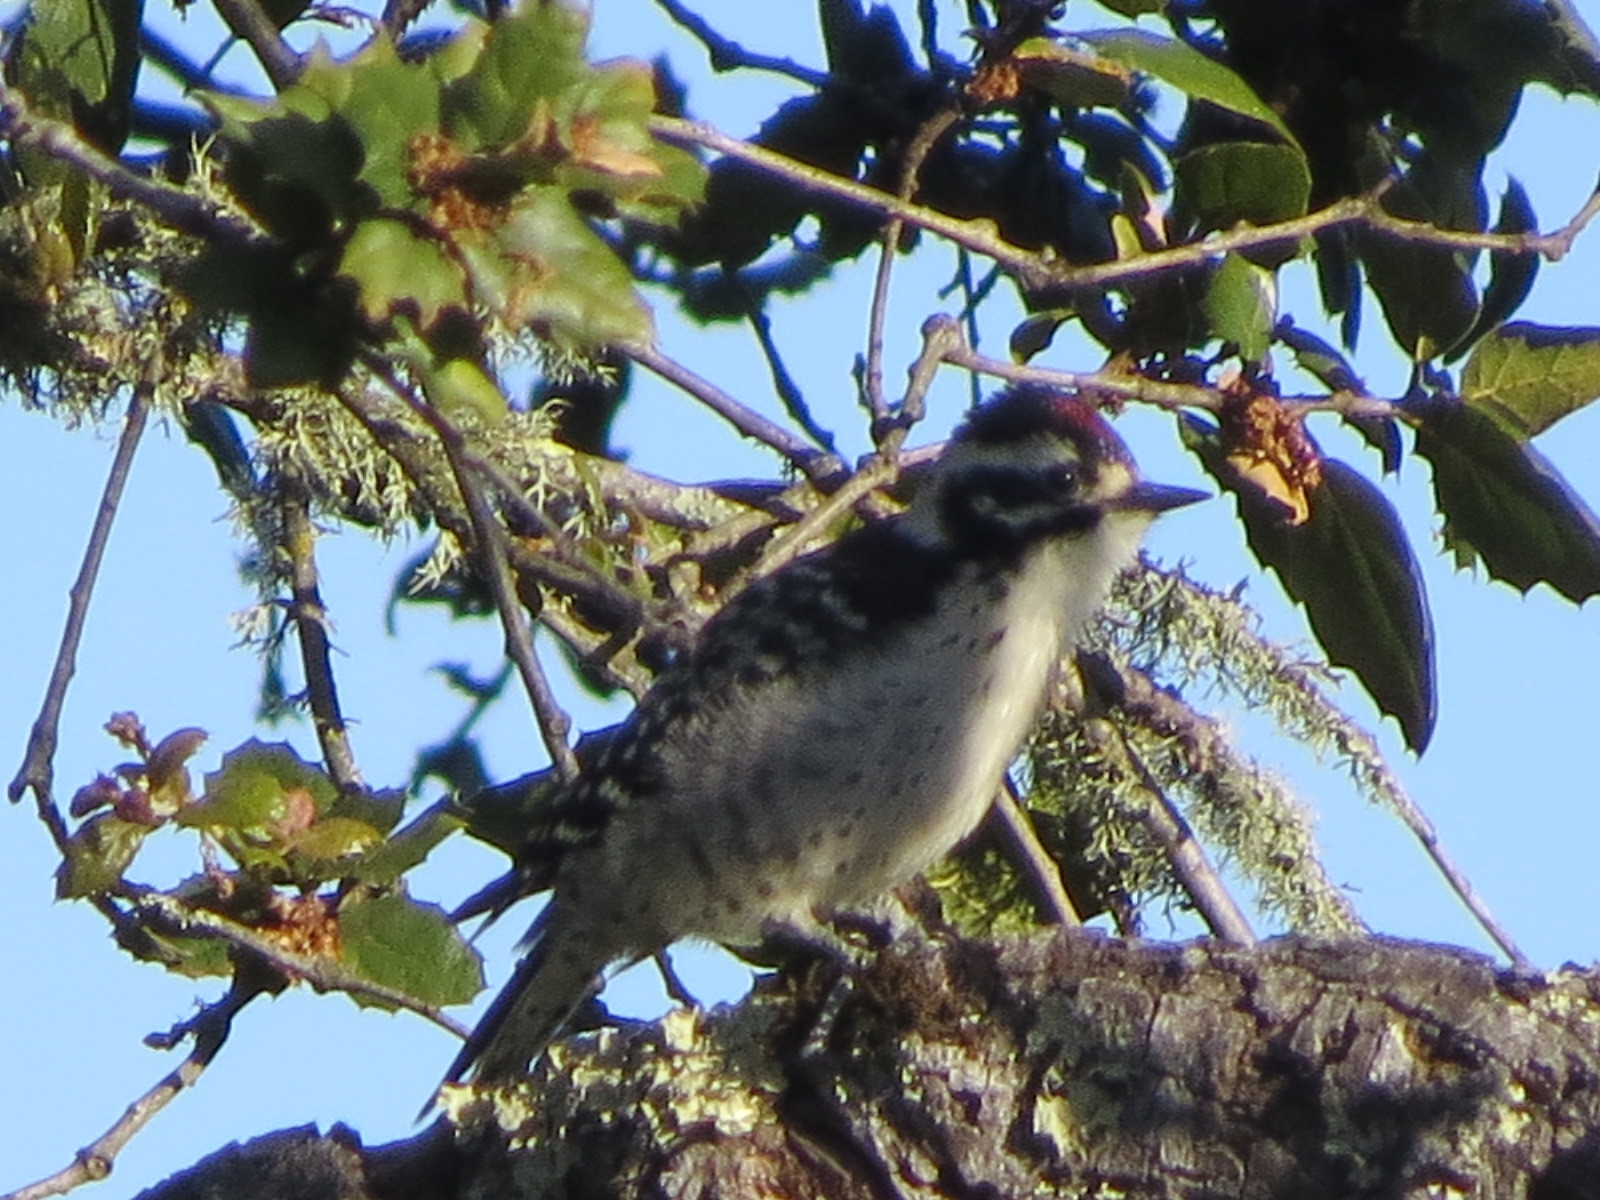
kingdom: Animalia
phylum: Chordata
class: Aves
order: Piciformes
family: Picidae
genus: Dryobates
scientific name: Dryobates nuttallii
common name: Nuttall's woodpecker
